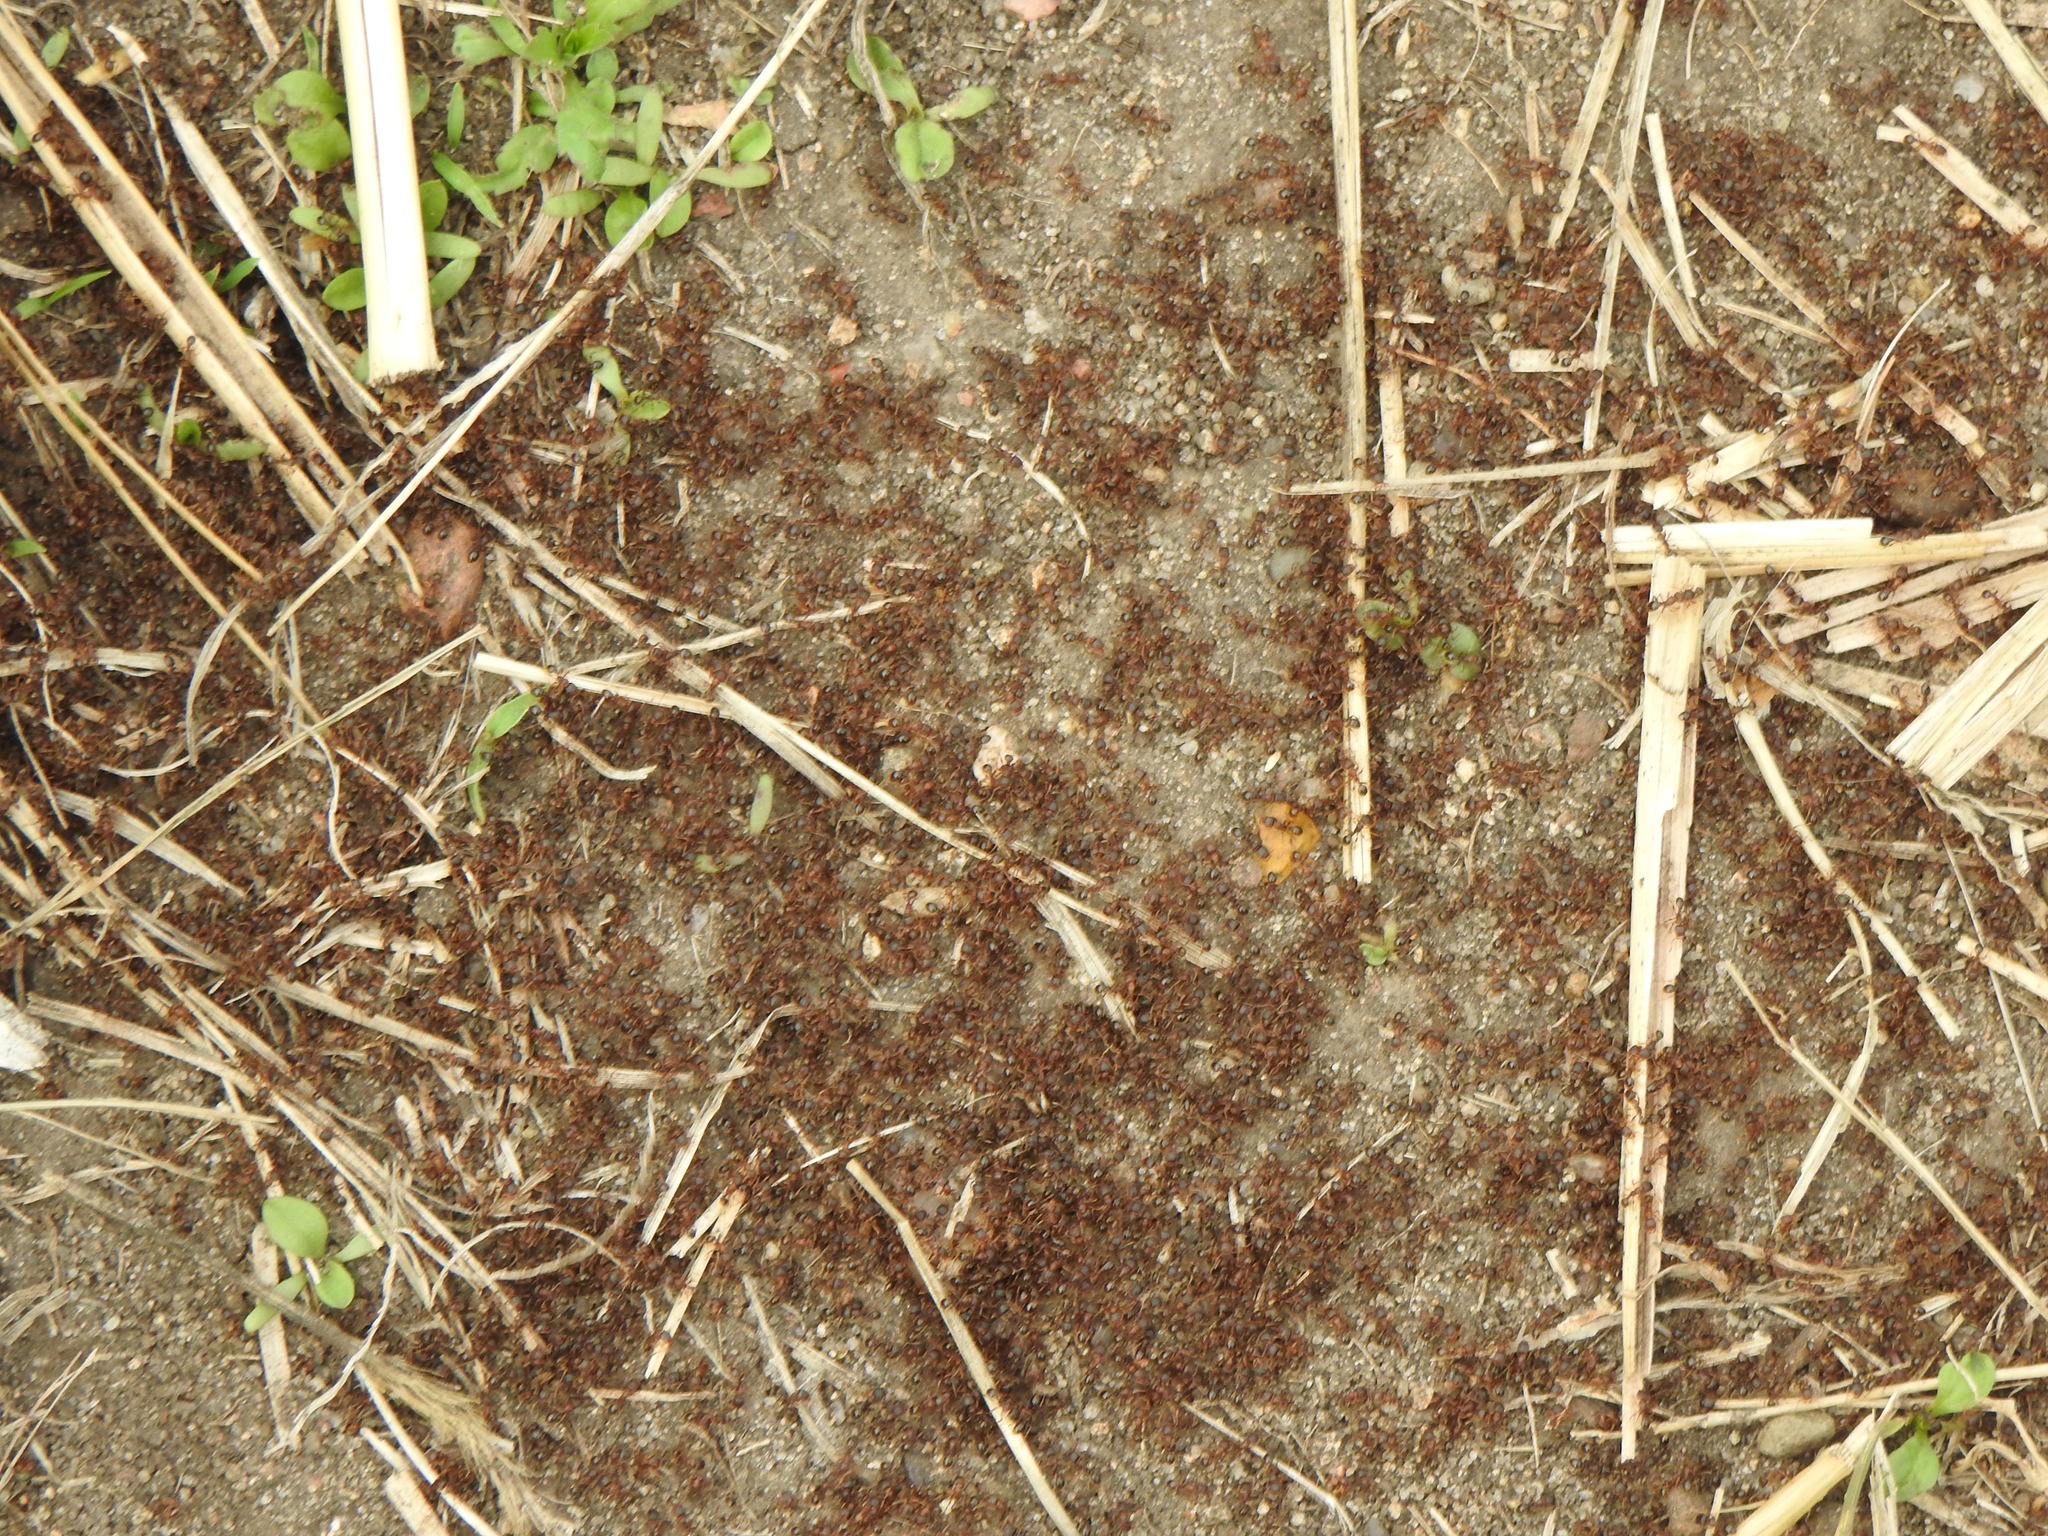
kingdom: Animalia
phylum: Arthropoda
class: Insecta
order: Hymenoptera
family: Formicidae
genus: Tetramorium
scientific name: Tetramorium
